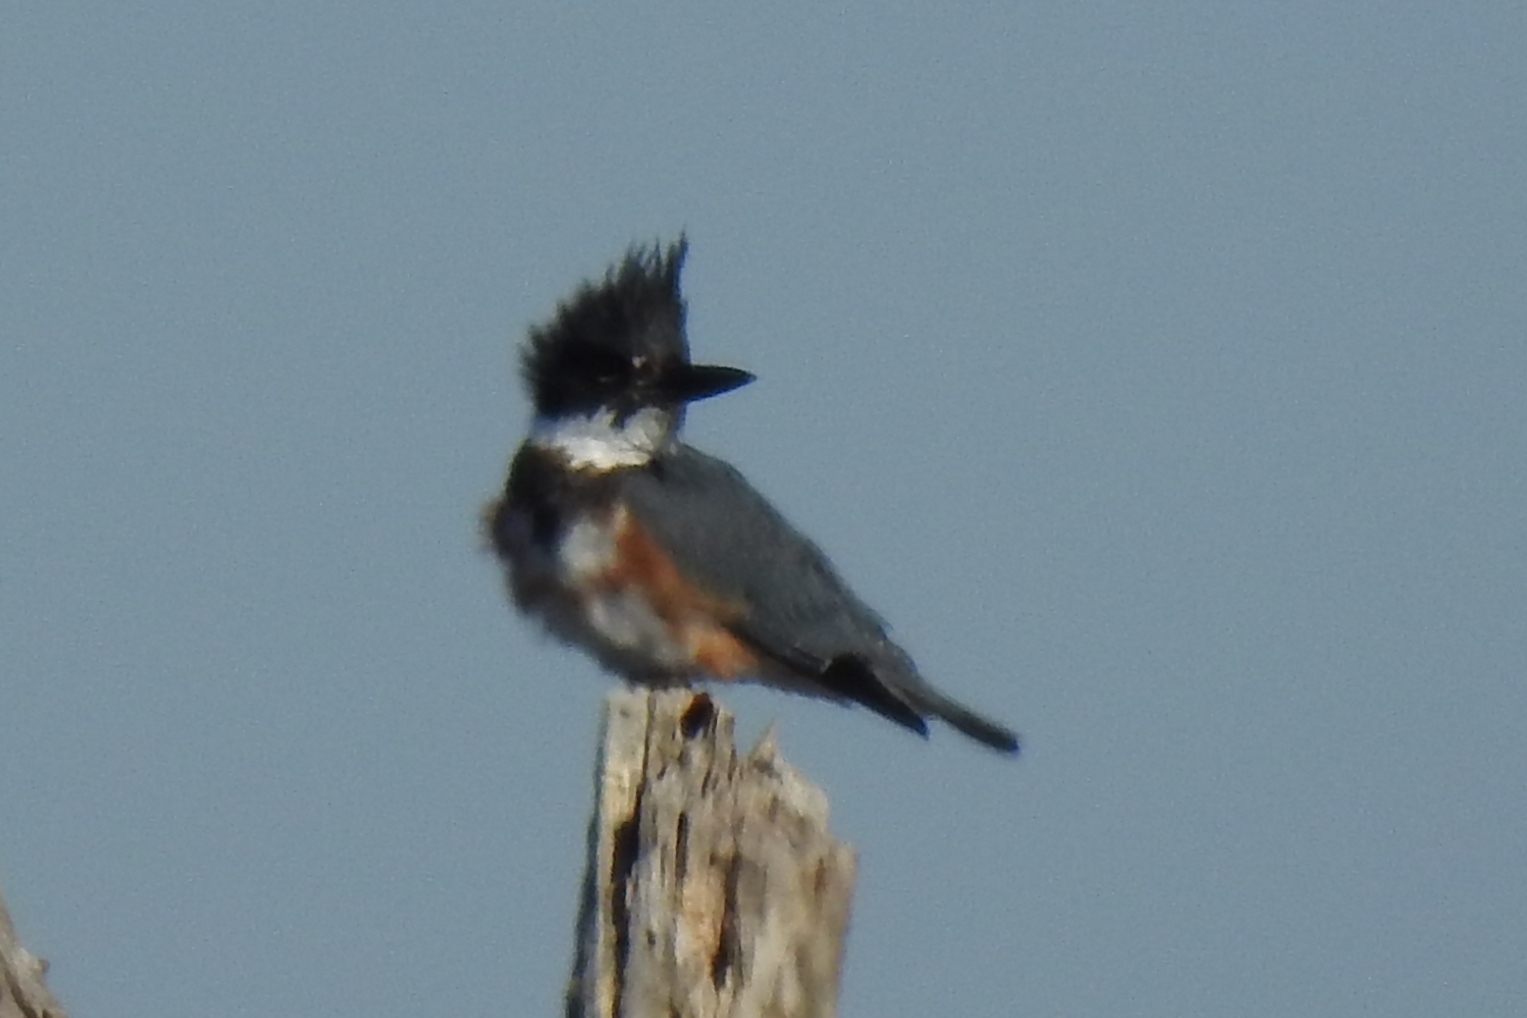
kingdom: Animalia
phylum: Chordata
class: Aves
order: Coraciiformes
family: Alcedinidae
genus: Megaceryle
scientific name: Megaceryle alcyon
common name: Belted kingfisher
